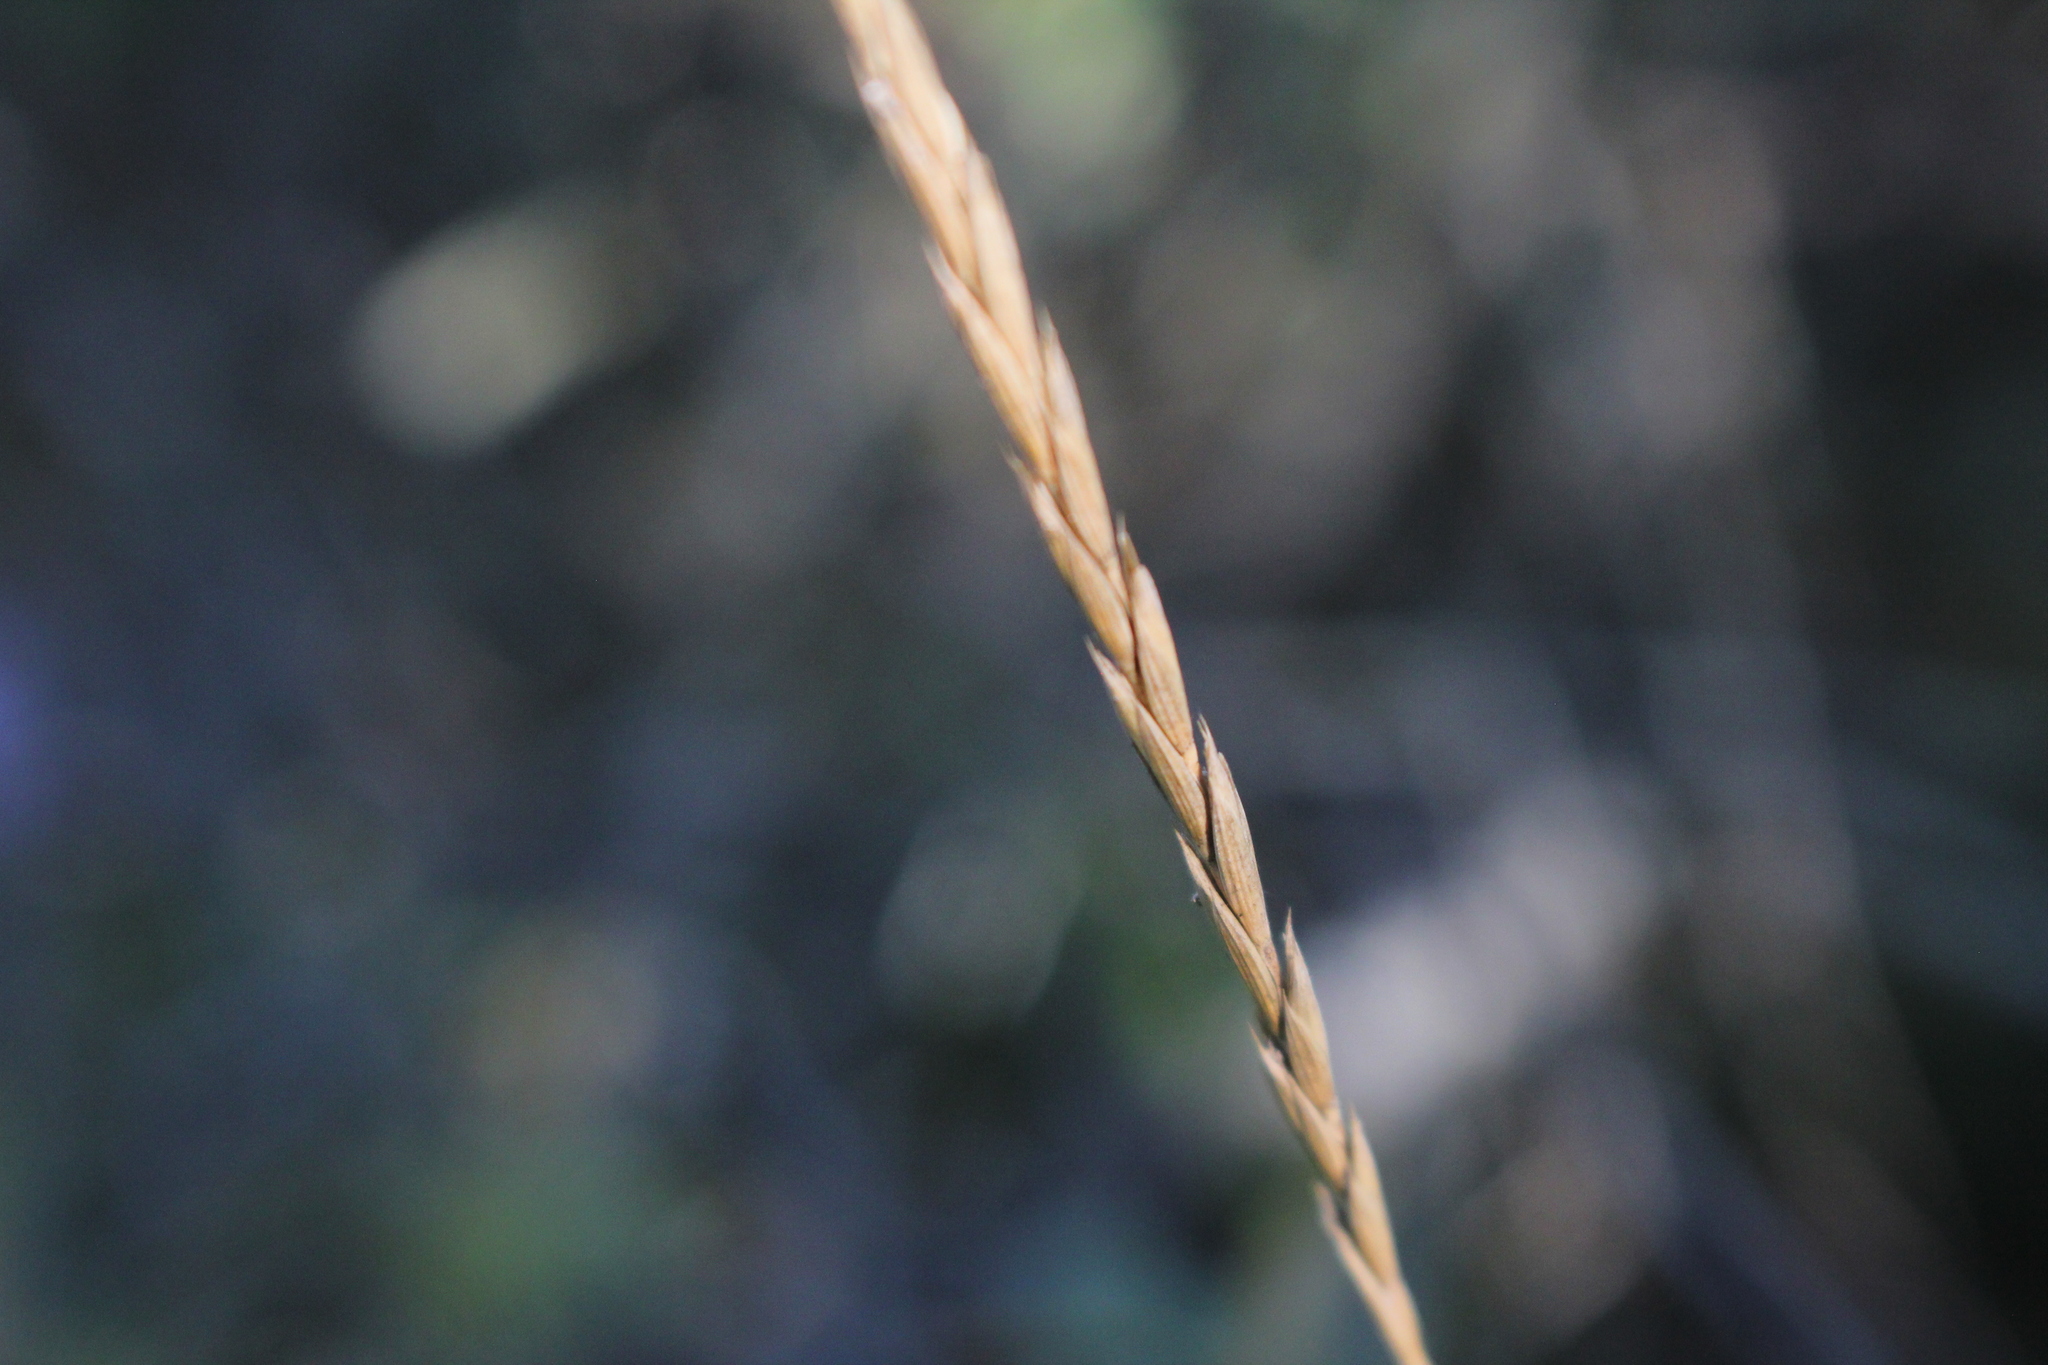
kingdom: Plantae
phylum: Tracheophyta
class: Liliopsida
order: Poales
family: Poaceae
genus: Elymus
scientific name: Elymus violaceus
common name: Arctic wheatgrass
